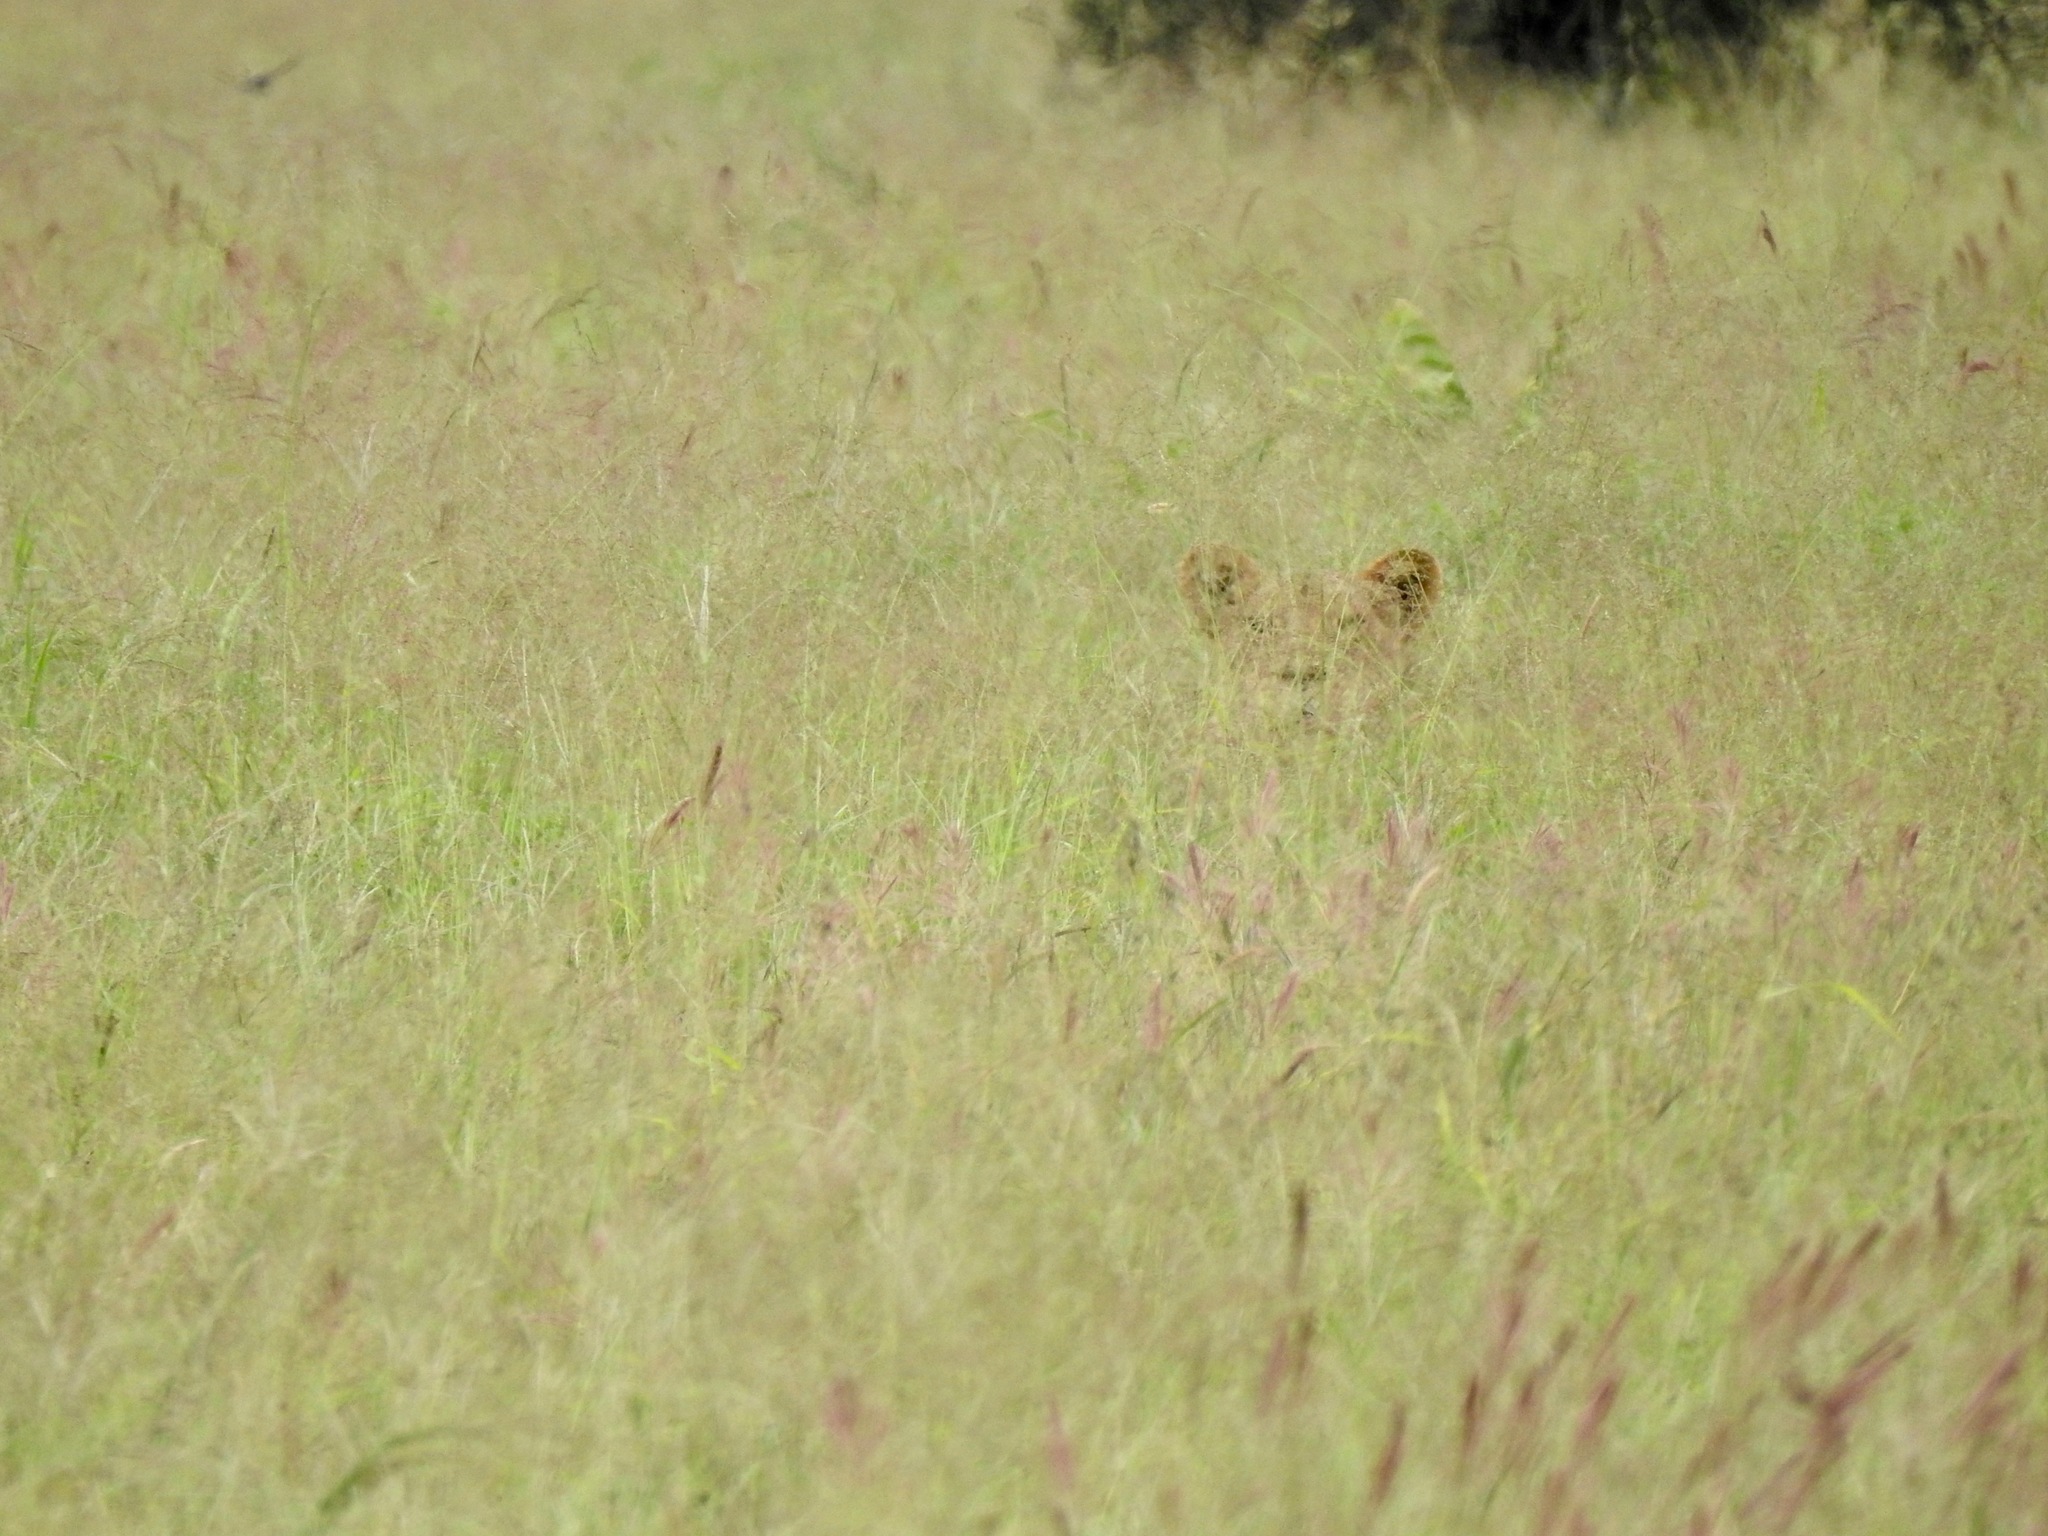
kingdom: Animalia
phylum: Chordata
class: Mammalia
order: Carnivora
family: Felidae
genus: Panthera
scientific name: Panthera leo
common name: Lion
